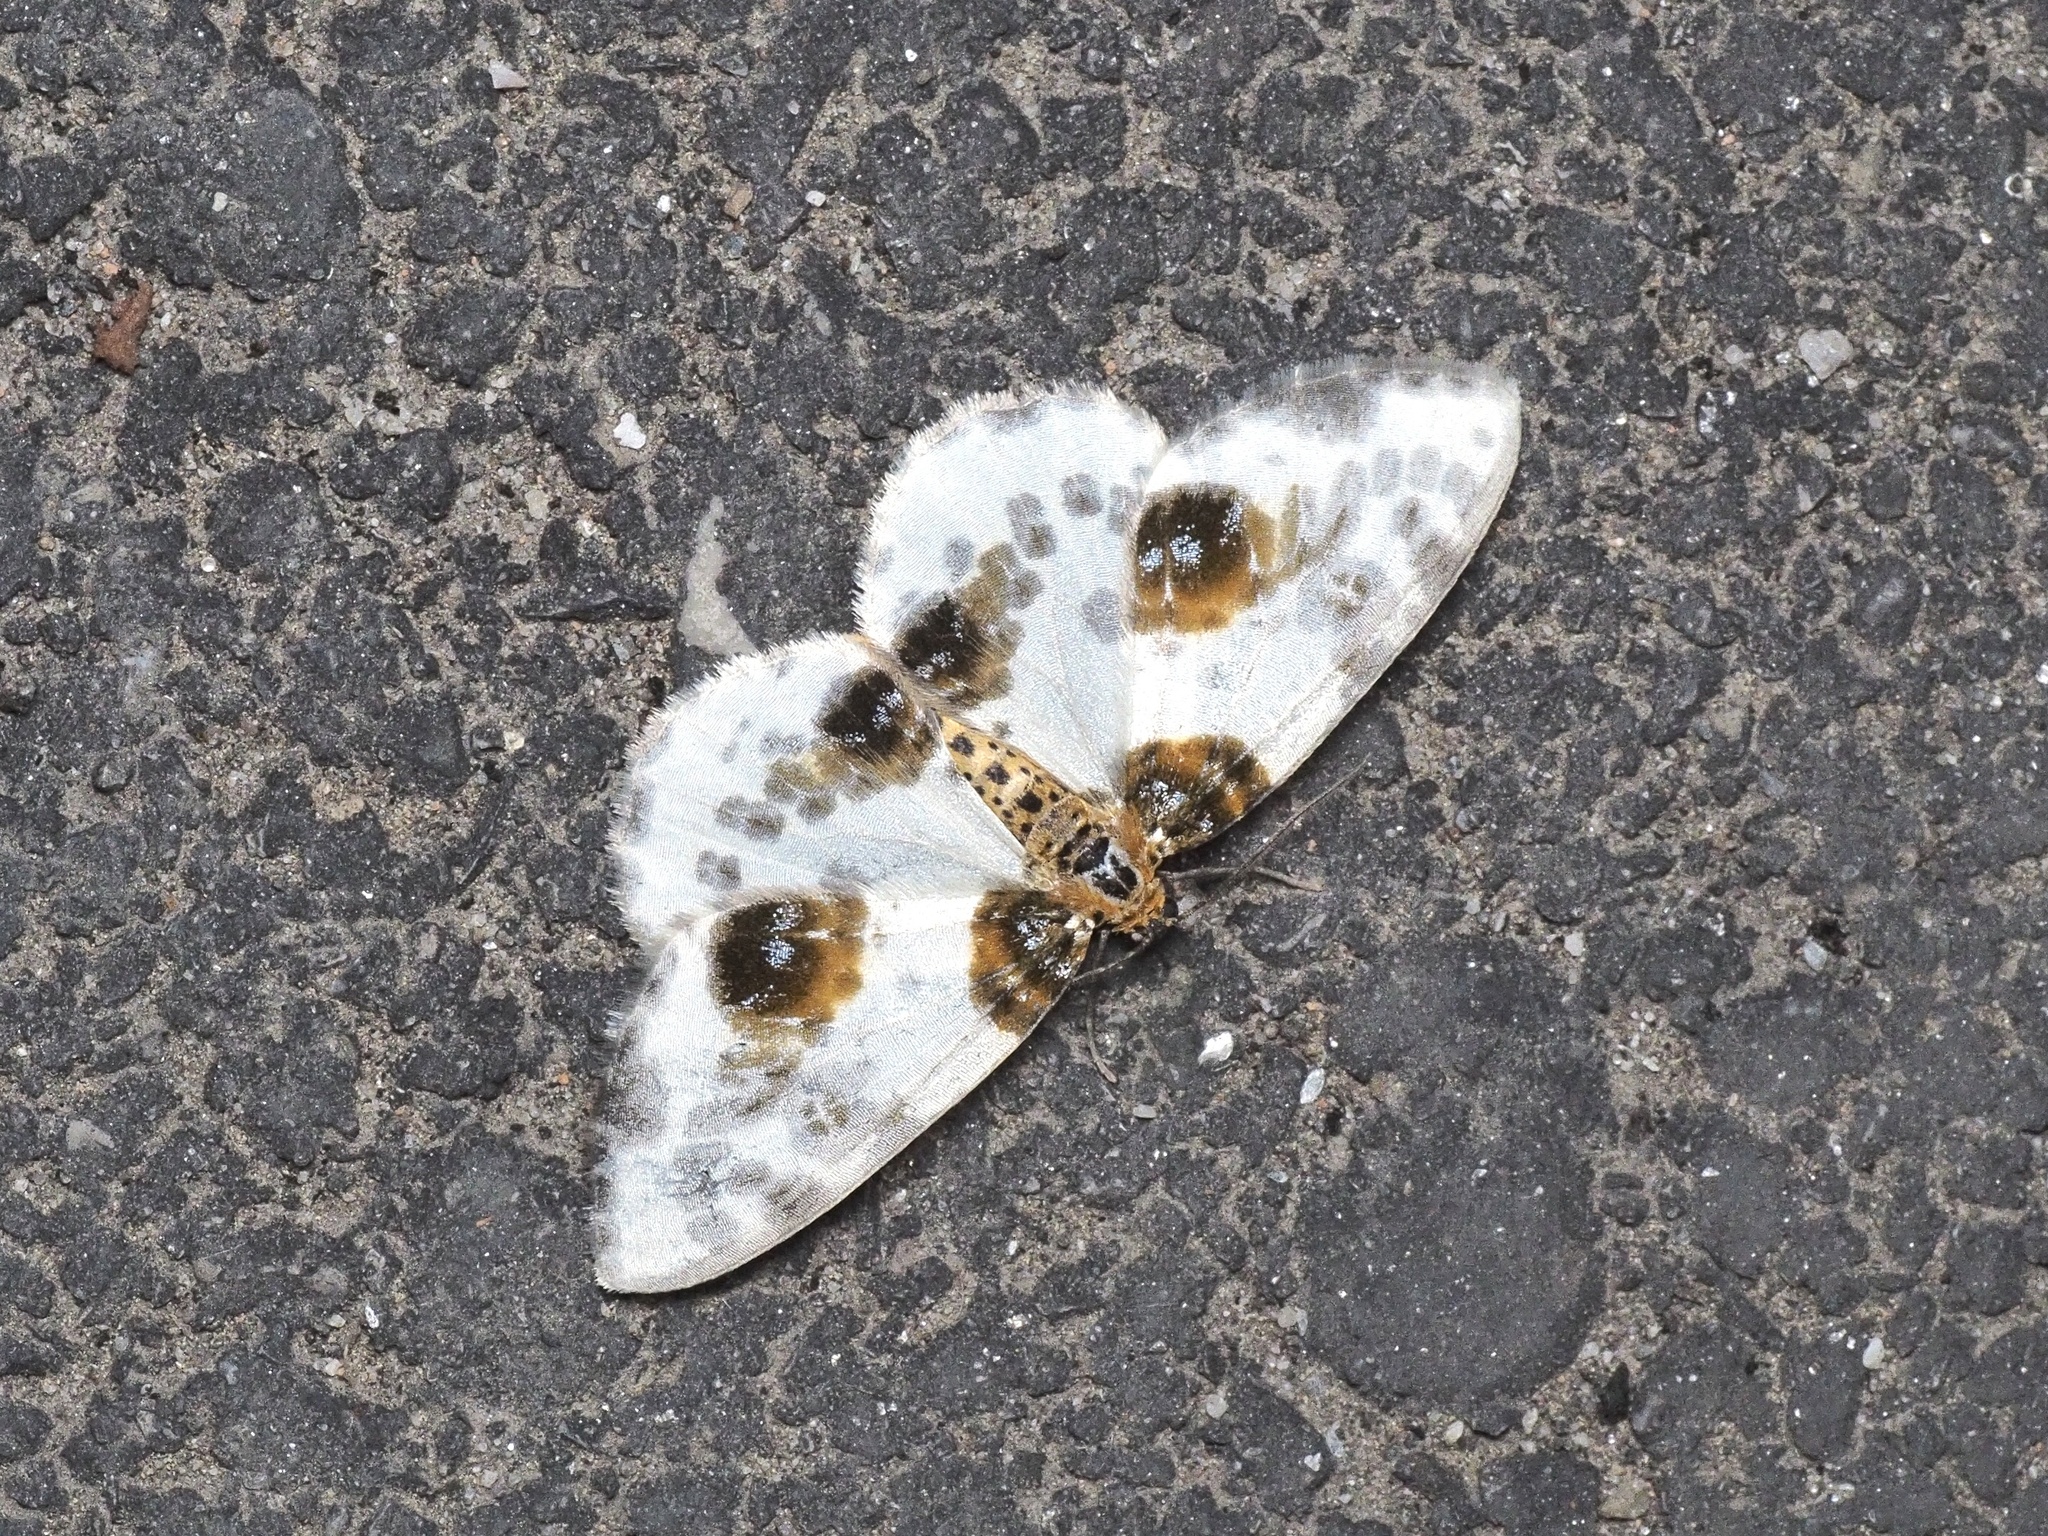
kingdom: Animalia
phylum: Arthropoda
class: Insecta
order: Lepidoptera
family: Geometridae
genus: Abraxas
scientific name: Abraxas sylvata
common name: Clouded magpie
